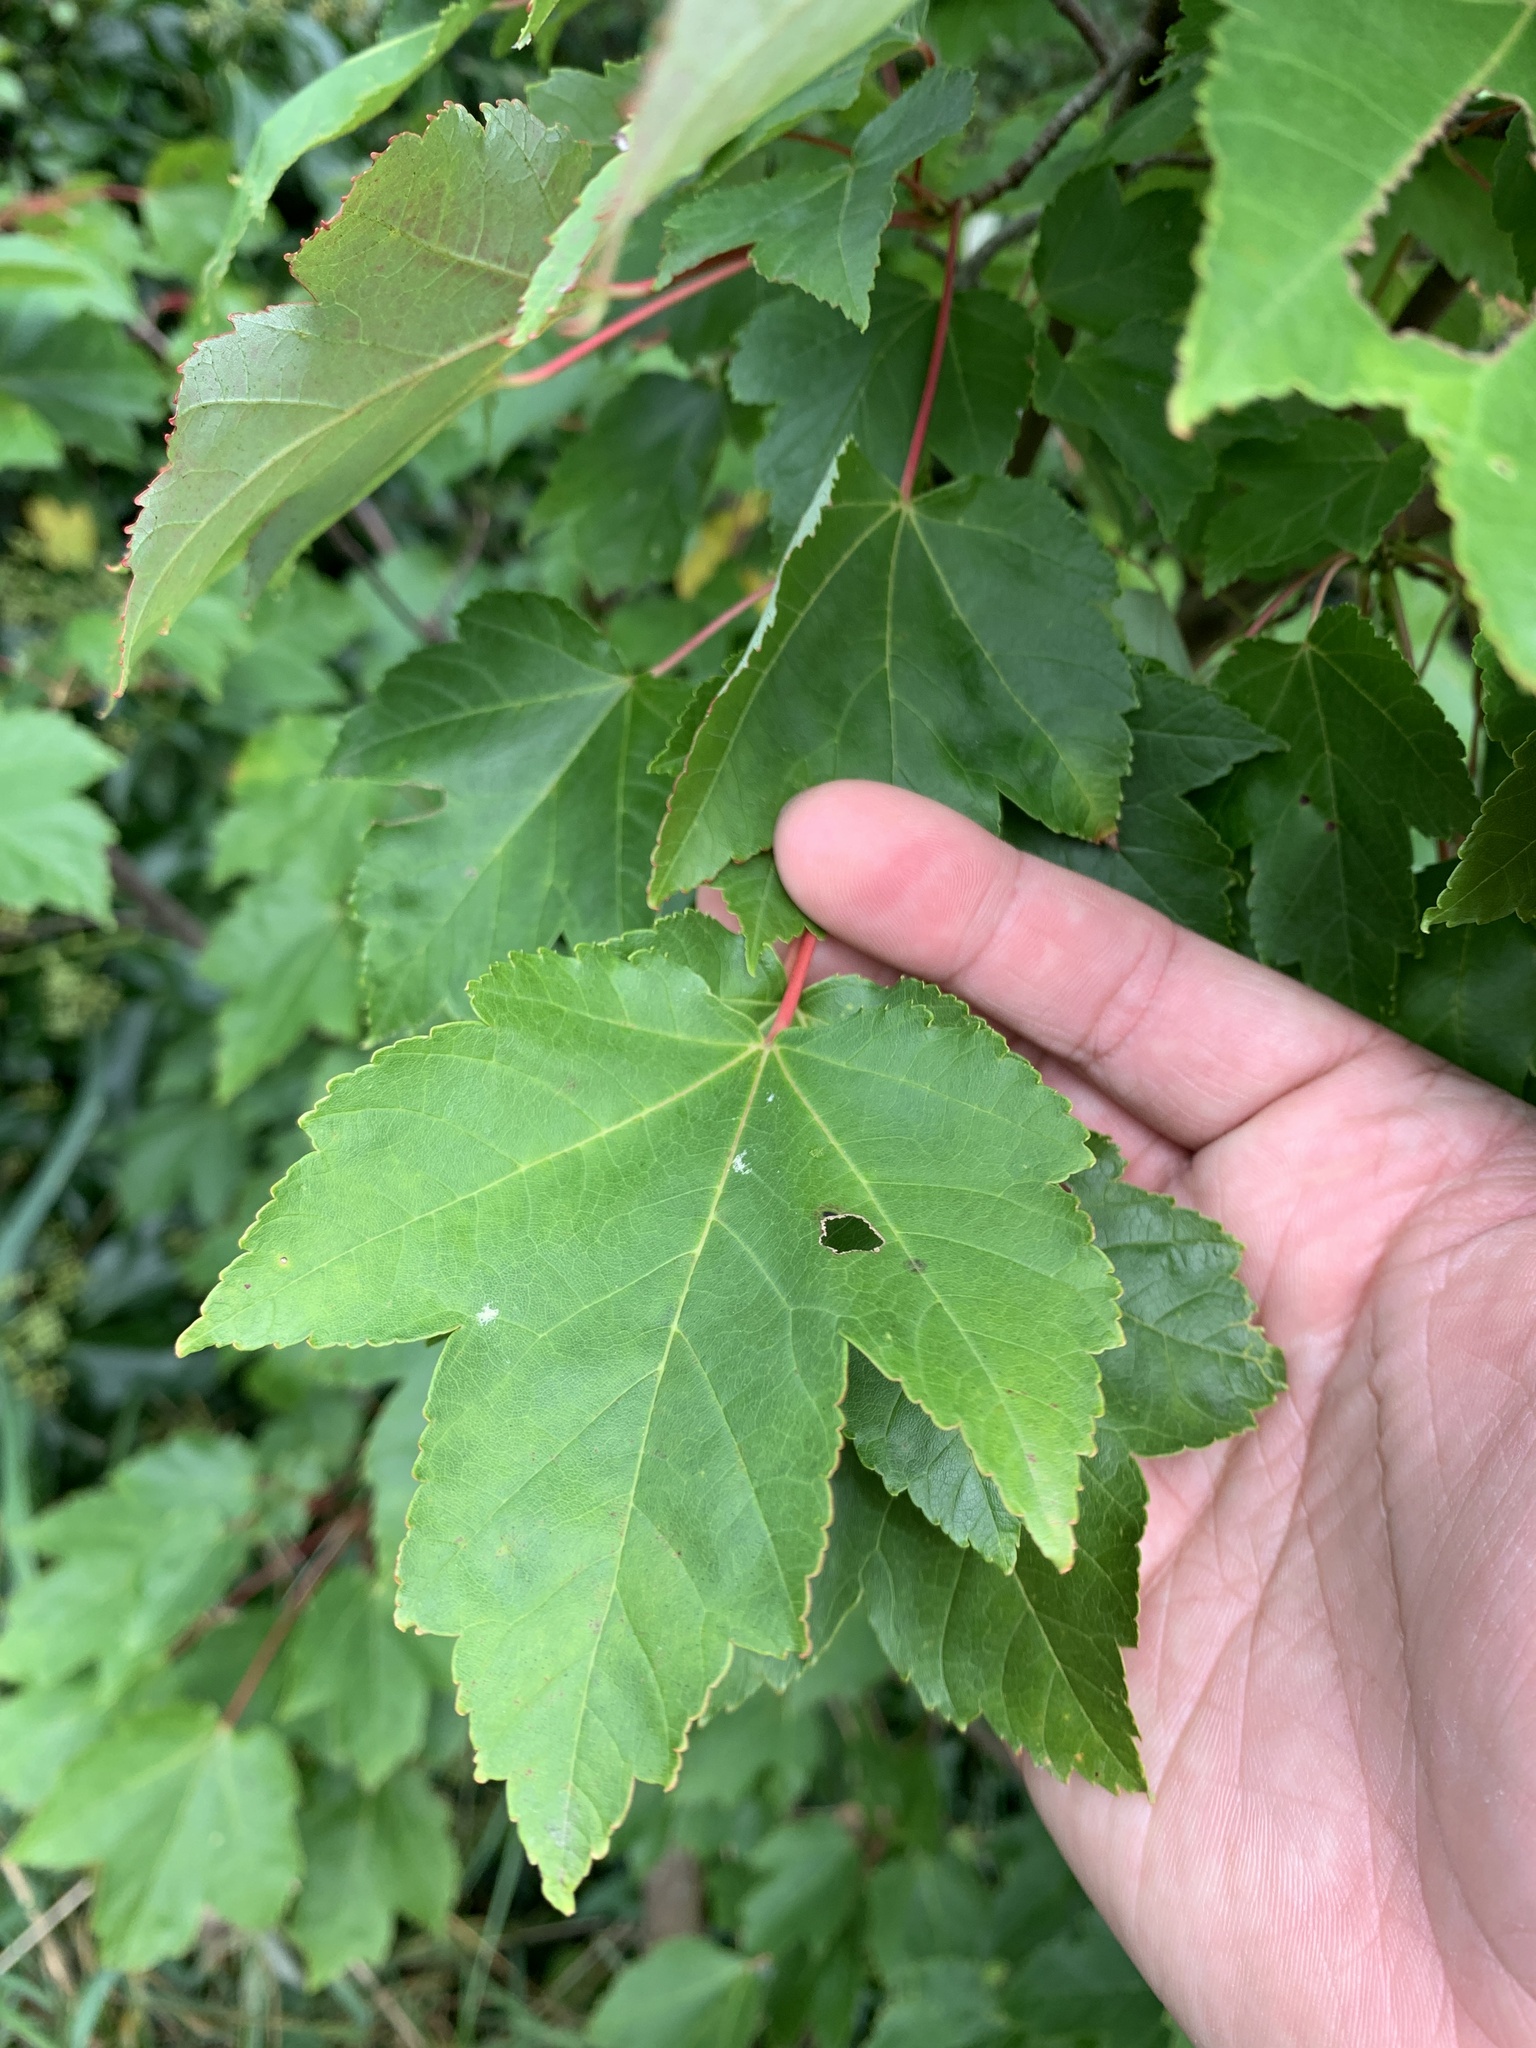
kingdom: Plantae
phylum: Tracheophyta
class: Magnoliopsida
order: Sapindales
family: Sapindaceae
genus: Acer
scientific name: Acer rubrum
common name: Red maple
